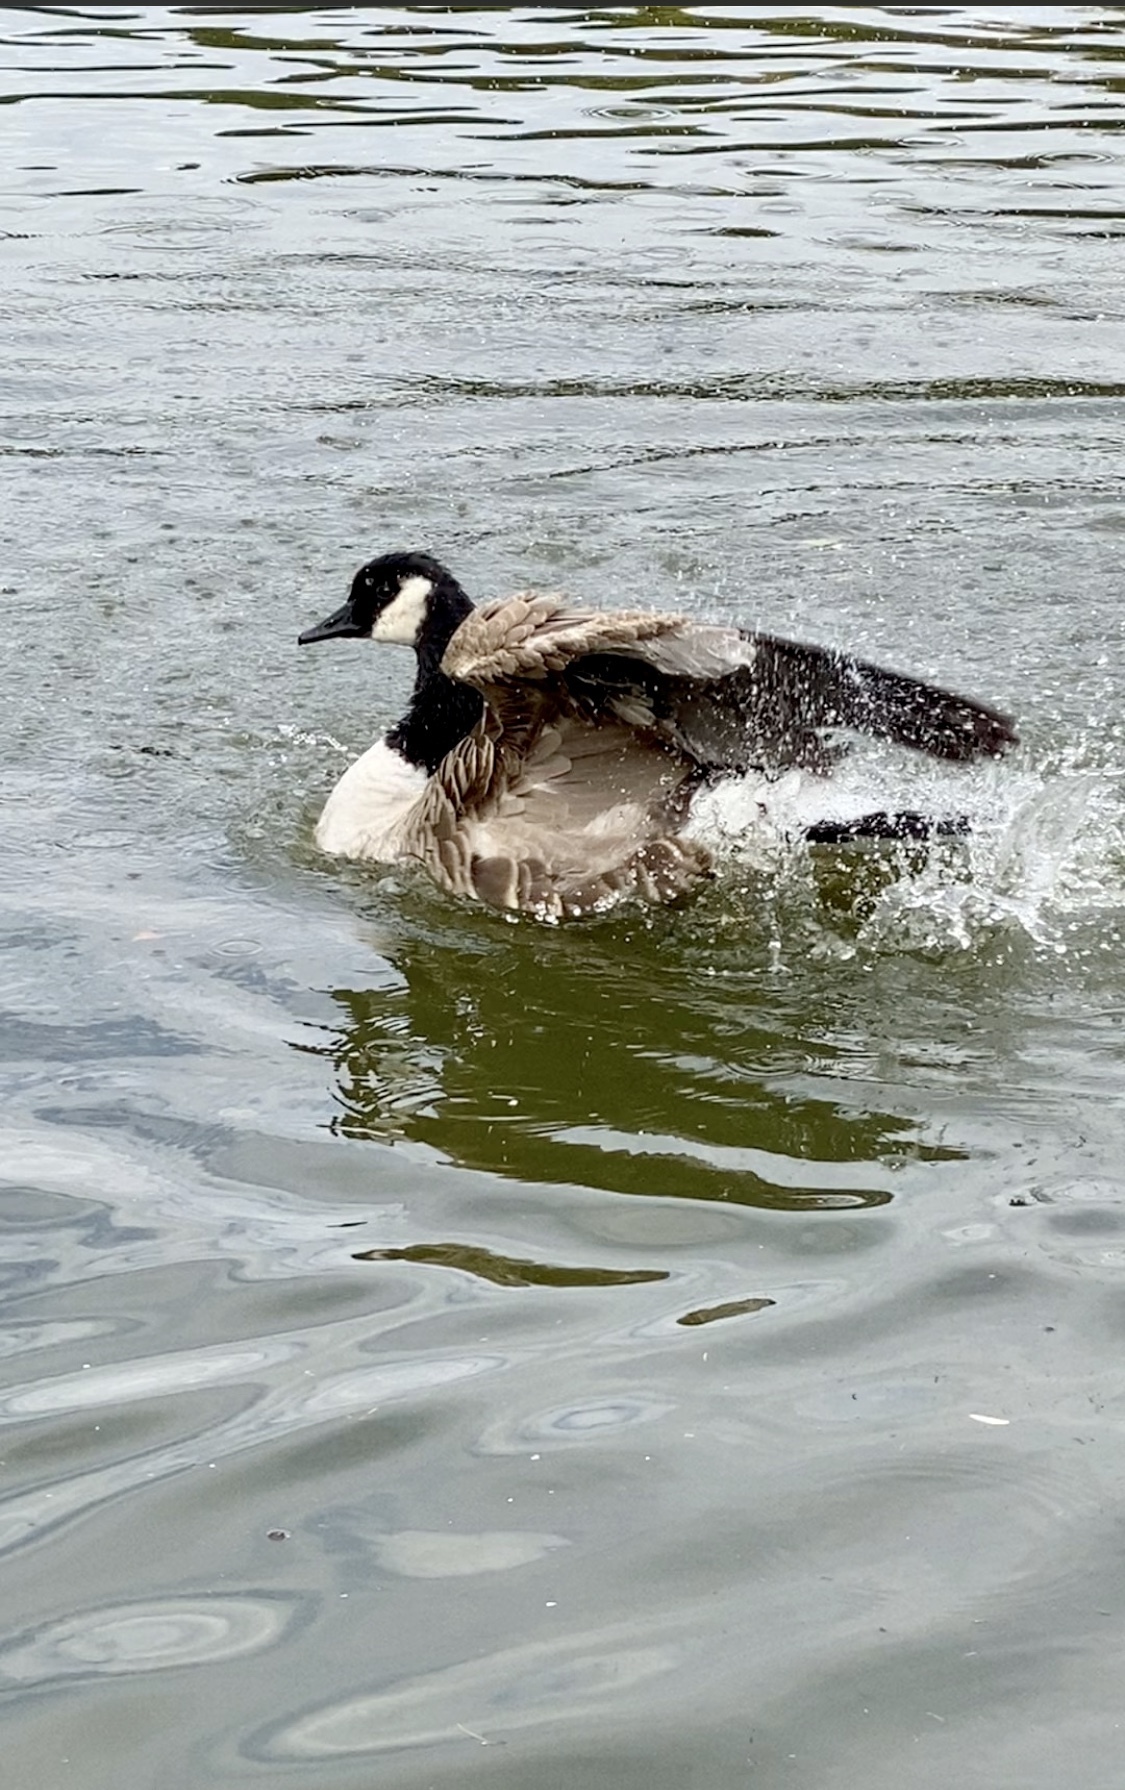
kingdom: Animalia
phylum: Chordata
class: Aves
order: Anseriformes
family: Anatidae
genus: Branta
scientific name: Branta canadensis
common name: Canada goose
